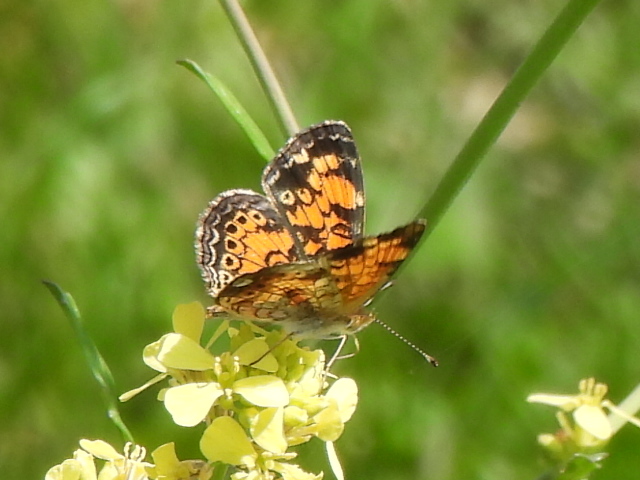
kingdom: Animalia
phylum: Arthropoda
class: Insecta
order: Lepidoptera
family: Nymphalidae
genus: Phyciodes
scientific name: Phyciodes tharos
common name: Pearl crescent
